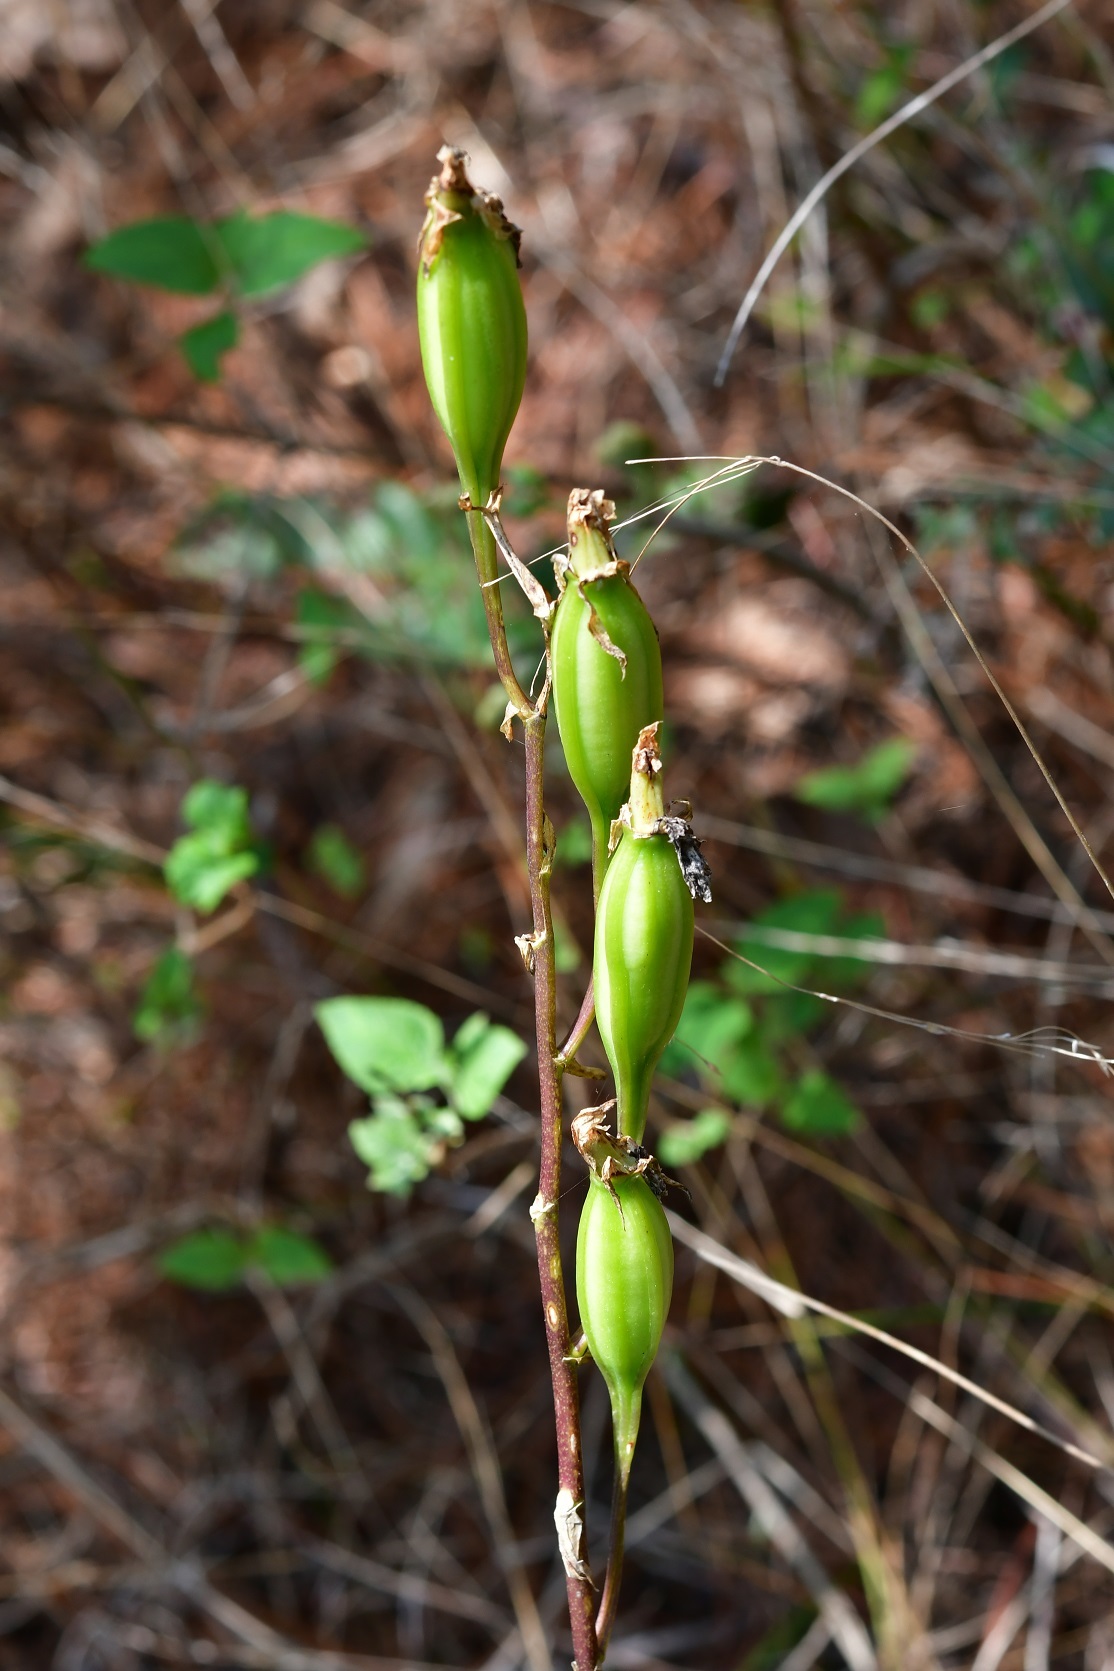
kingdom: Plantae
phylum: Tracheophyta
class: Liliopsida
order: Asparagales
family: Orchidaceae
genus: Rhynchostele
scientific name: Rhynchostele bictoniensis
